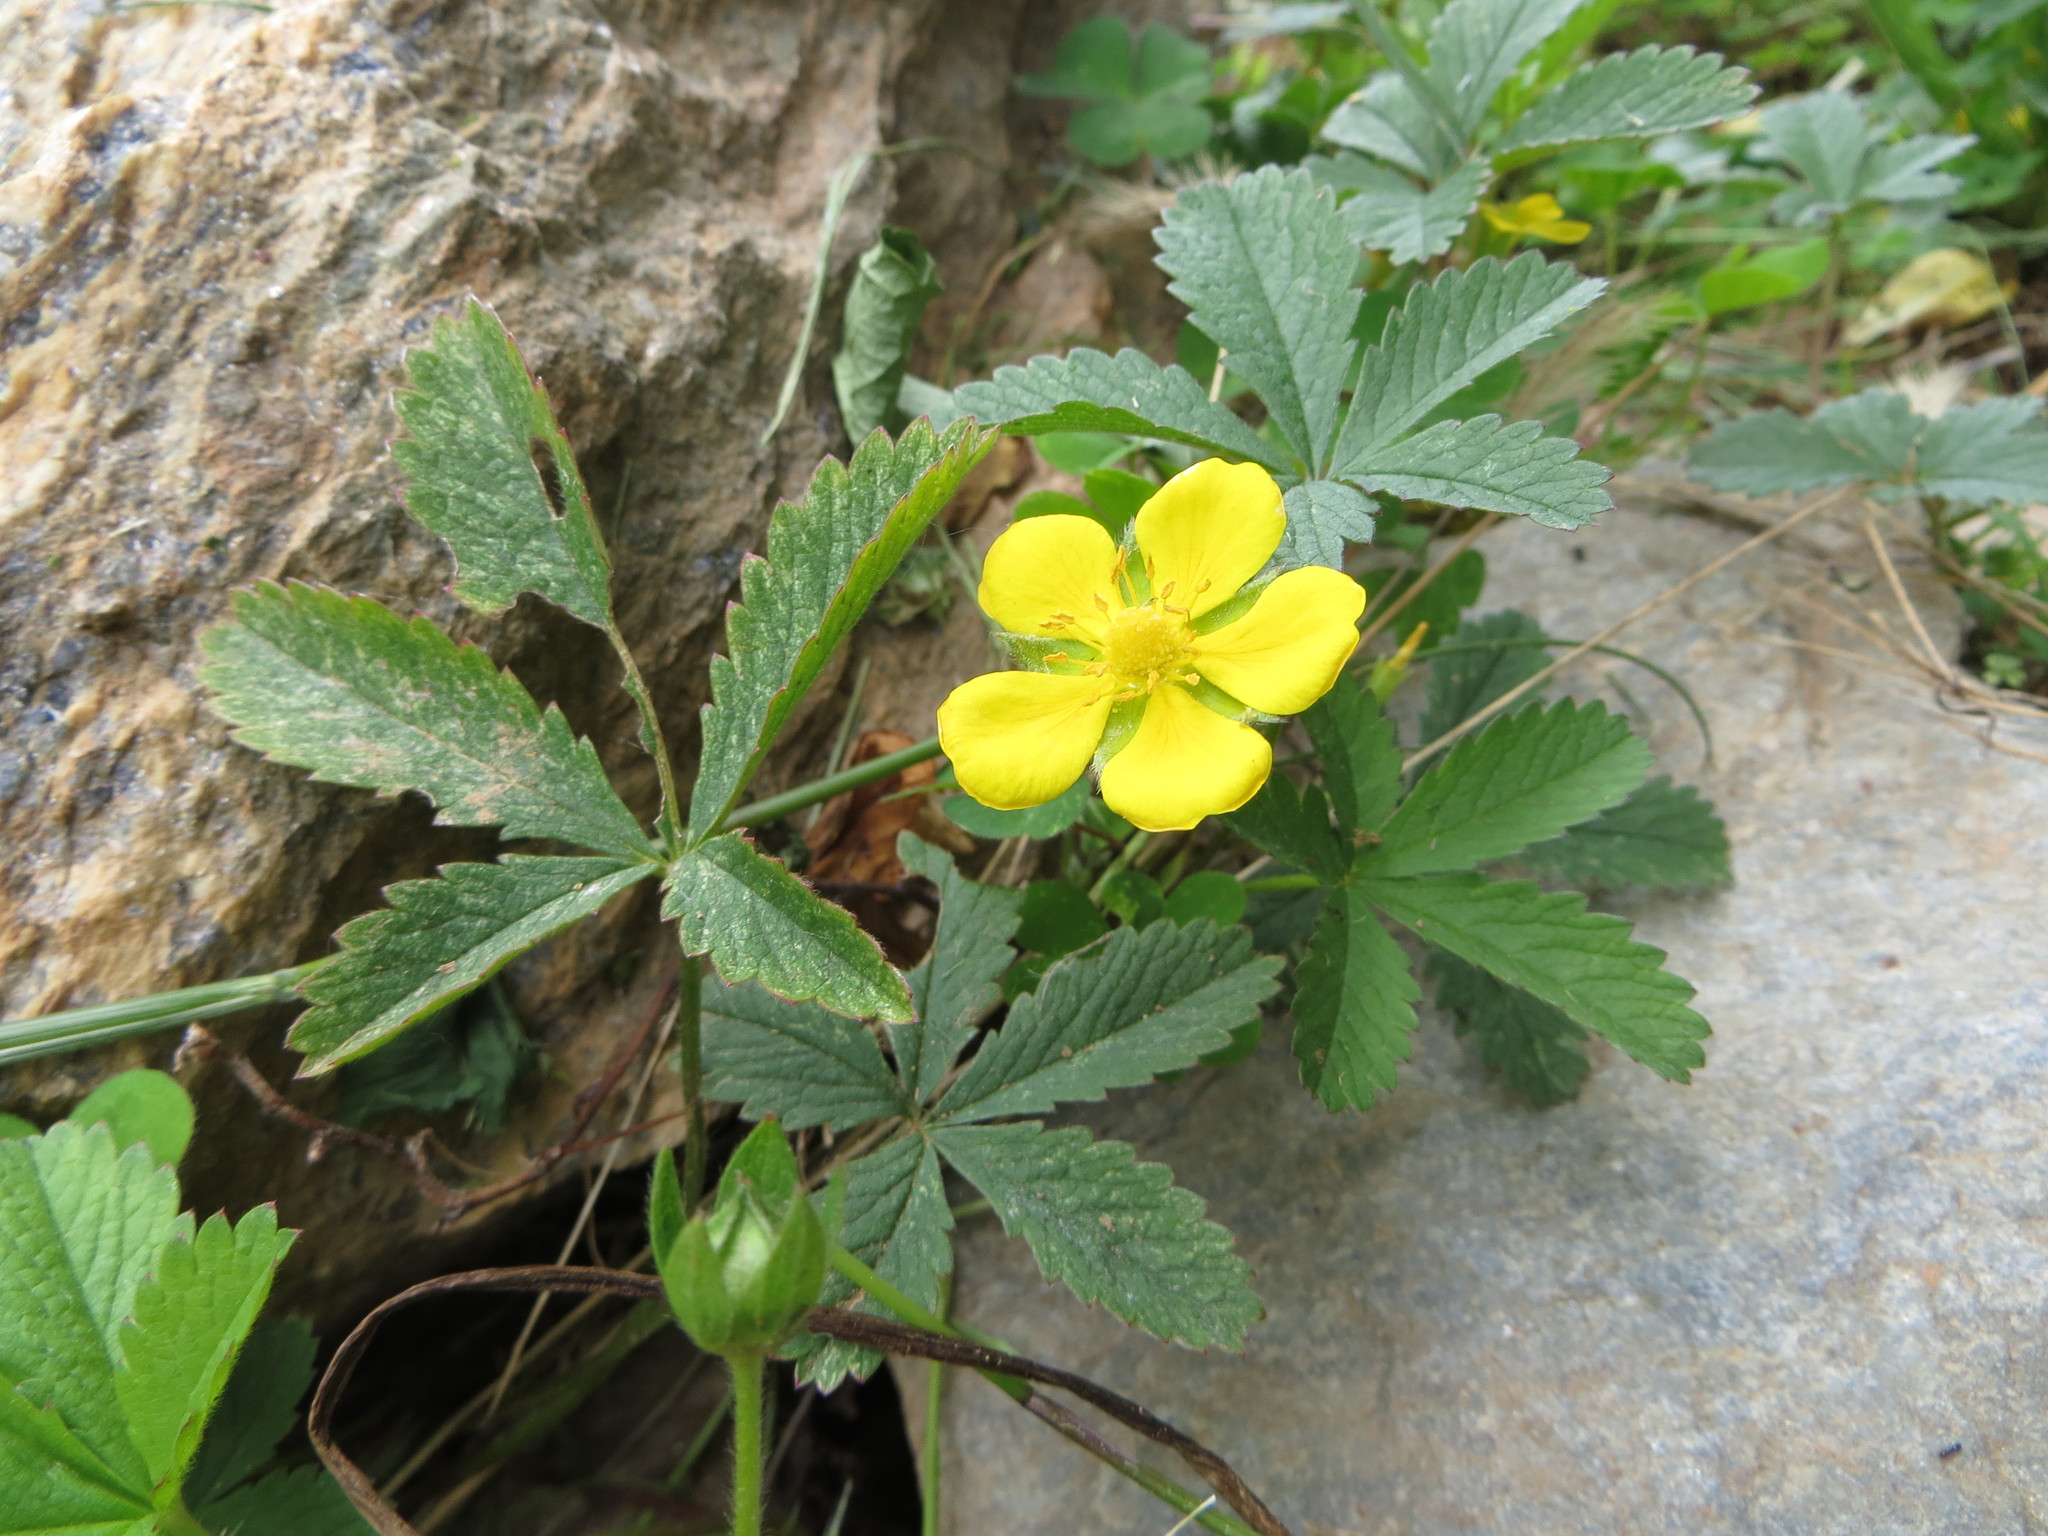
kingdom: Plantae
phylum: Tracheophyta
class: Magnoliopsida
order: Rosales
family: Rosaceae
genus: Potentilla
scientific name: Potentilla reptans
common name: Creeping cinquefoil
